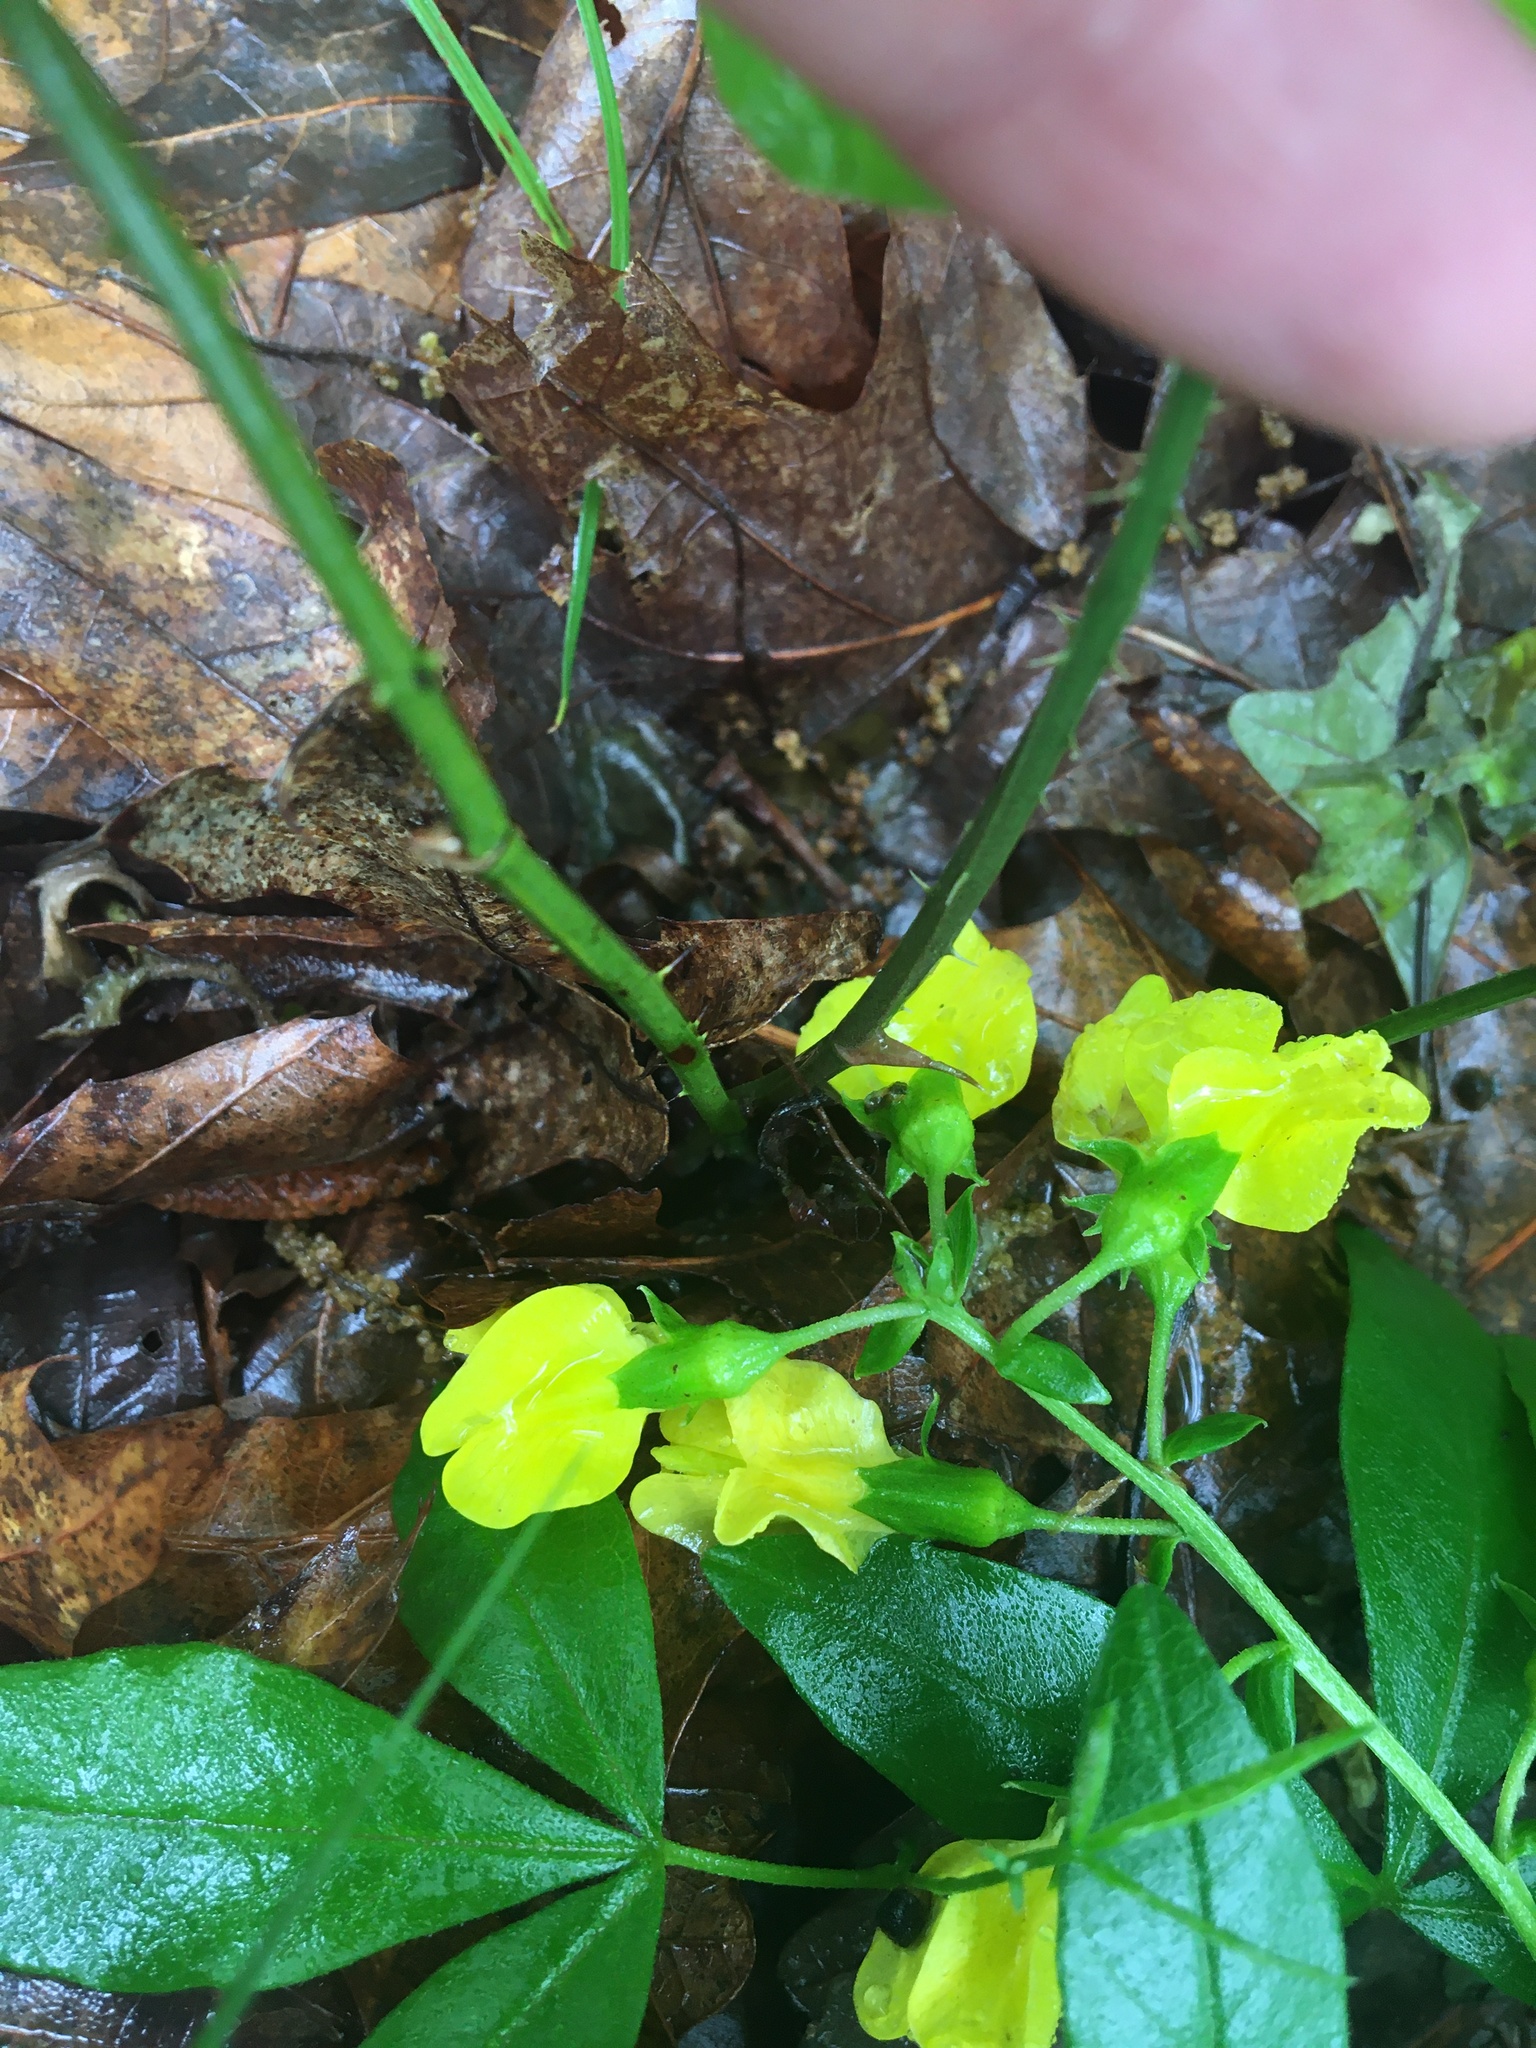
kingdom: Plantae
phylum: Tracheophyta
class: Magnoliopsida
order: Fabales
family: Fabaceae
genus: Thermopsis
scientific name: Thermopsis mollis
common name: Allegheny mountain goldenbanner
